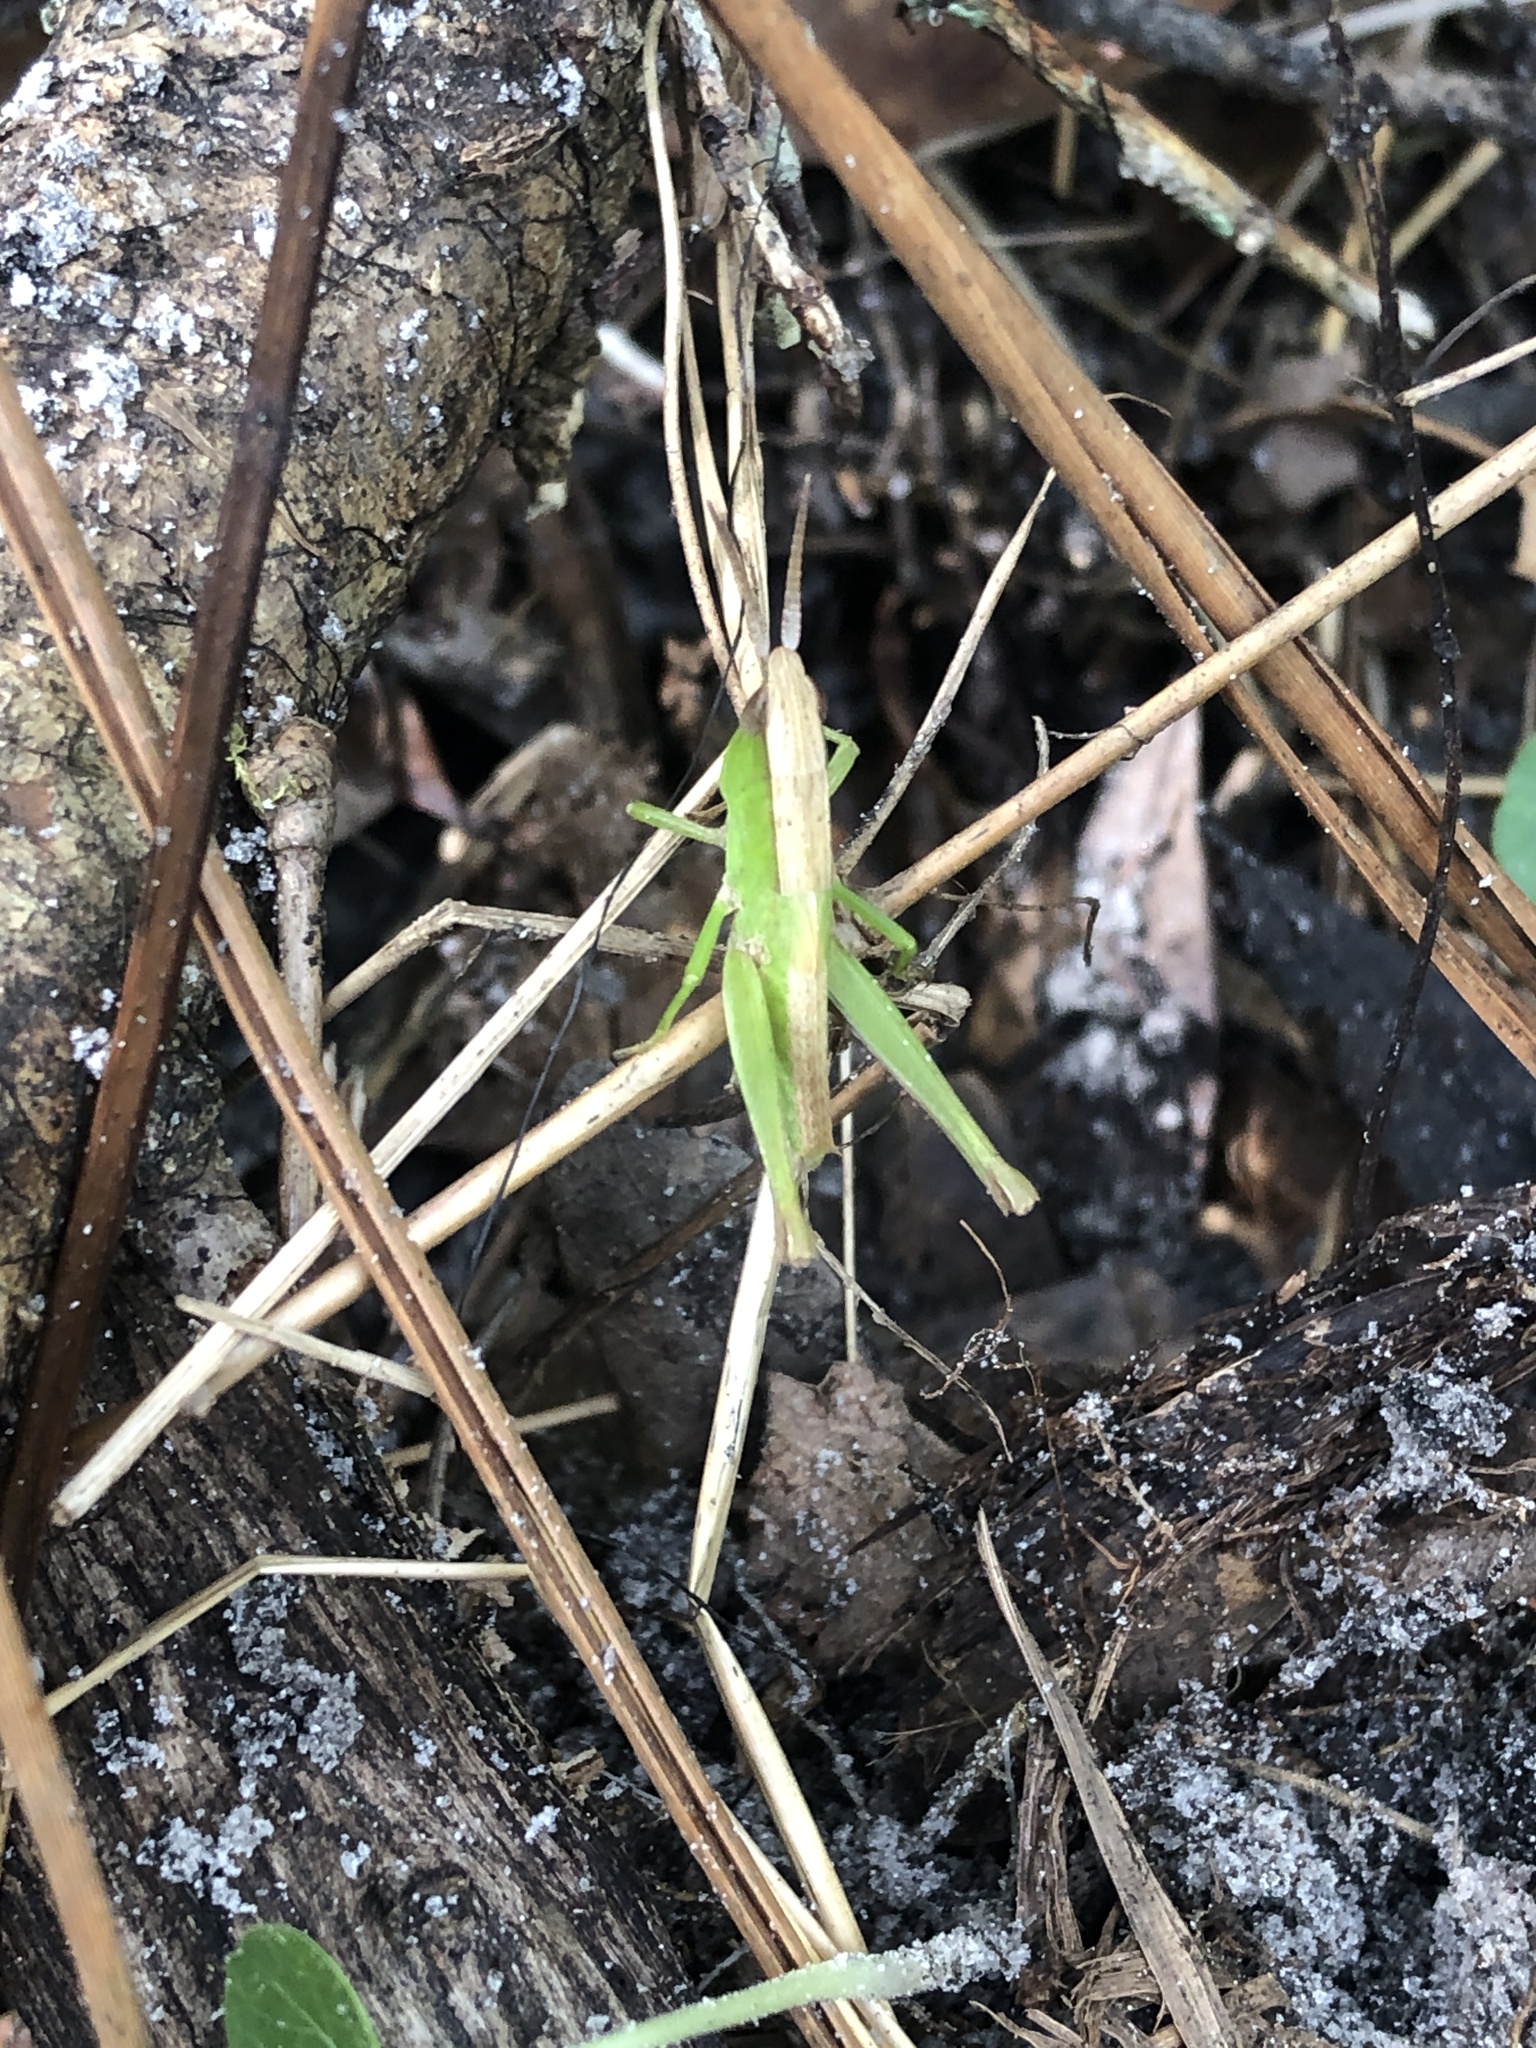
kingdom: Animalia
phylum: Arthropoda
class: Insecta
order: Orthoptera
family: Acrididae
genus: Metaleptea
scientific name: Metaleptea brevicornis
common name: Clipped-wing grasshopper
